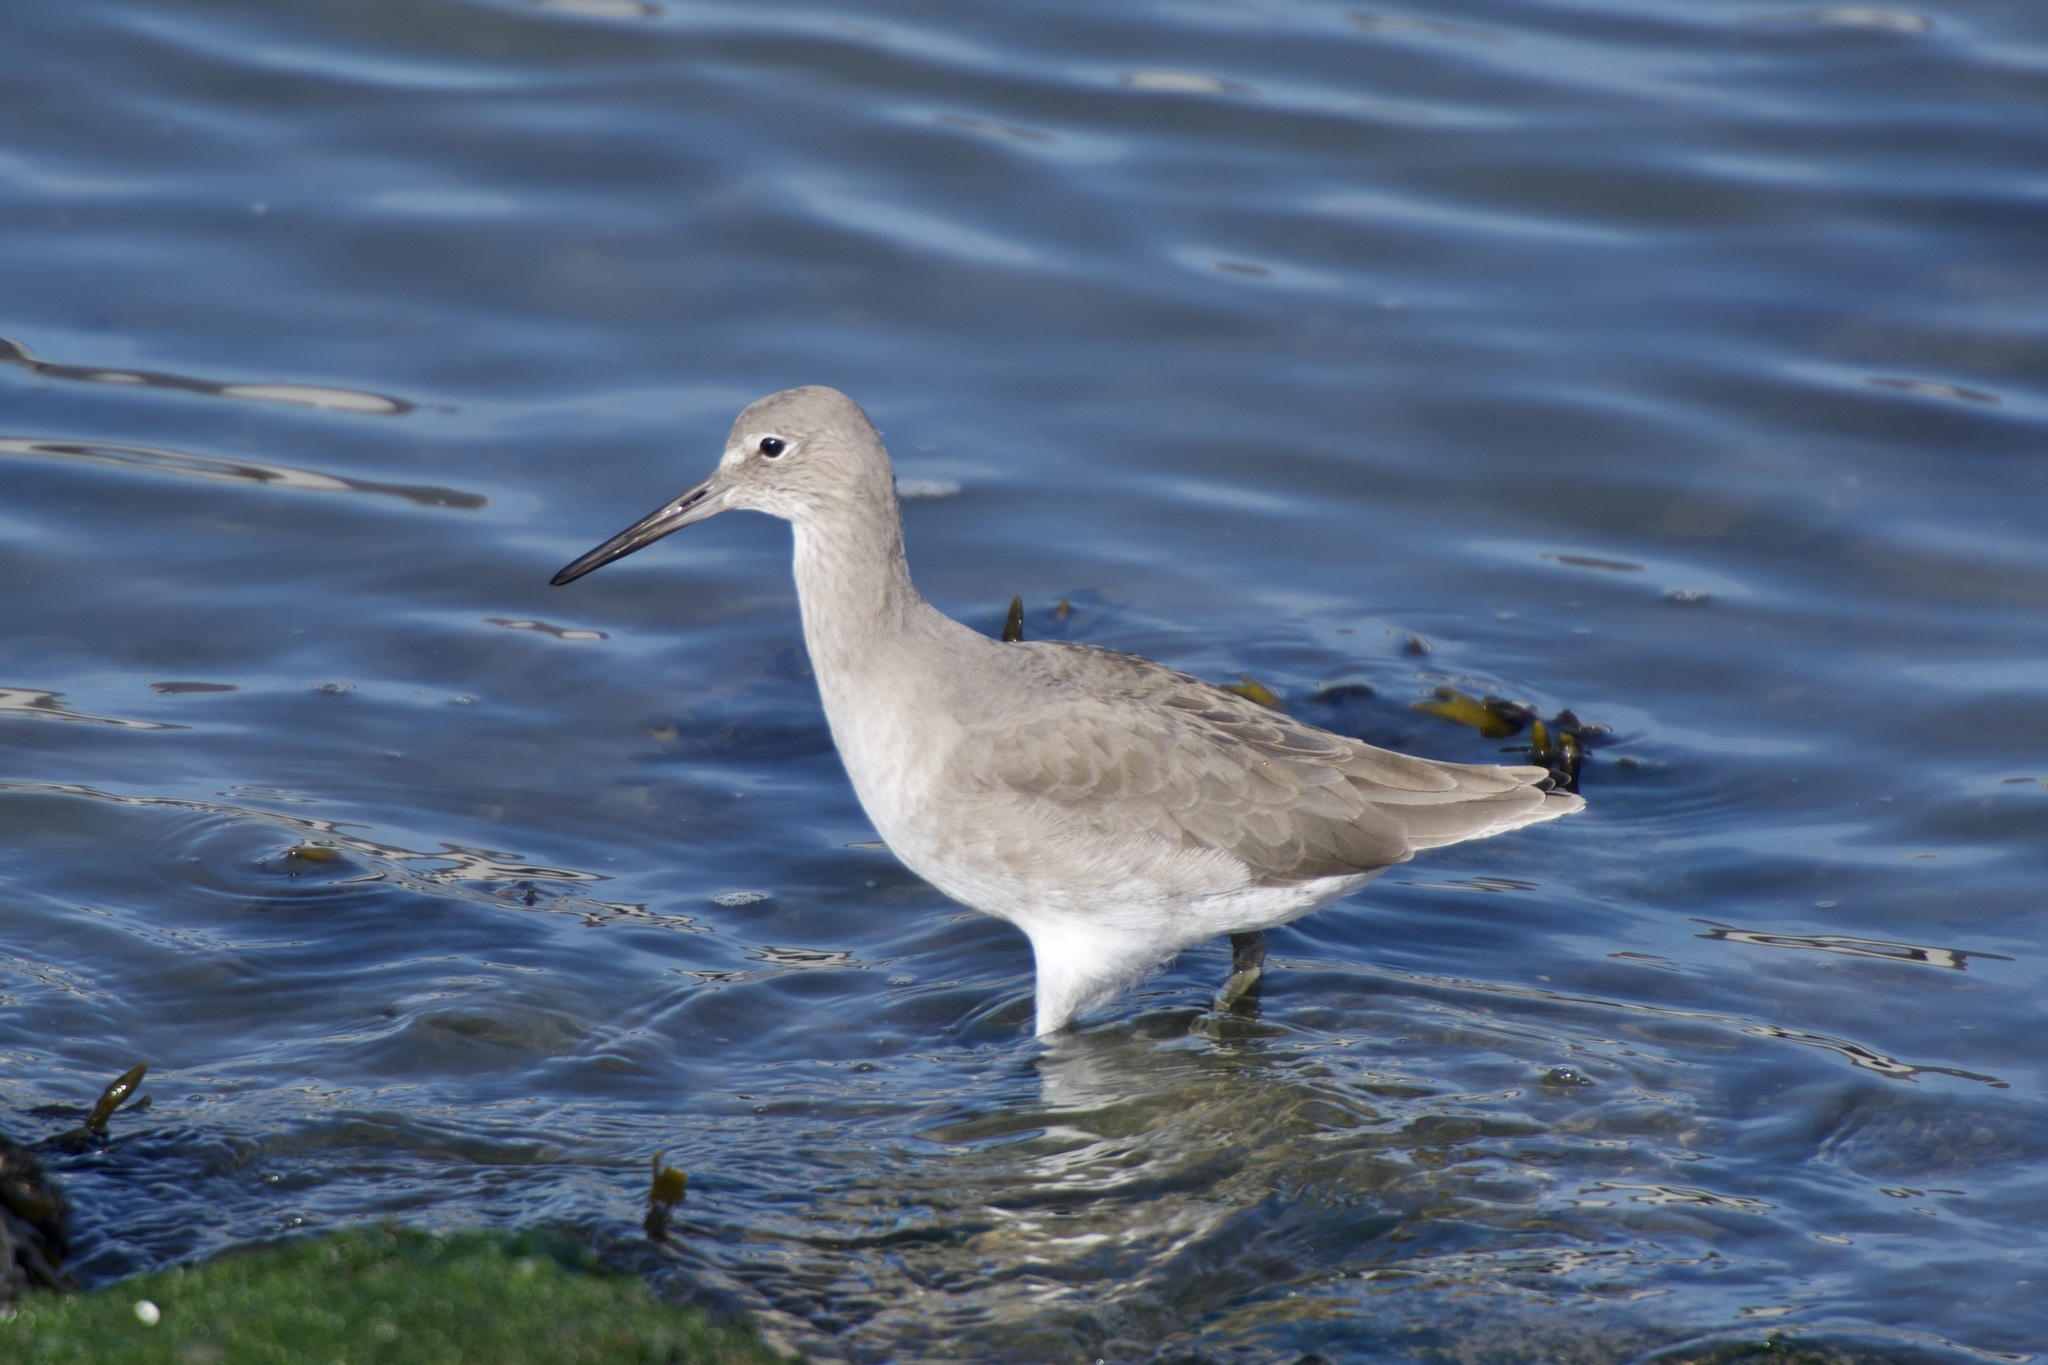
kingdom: Animalia
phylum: Chordata
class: Aves
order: Charadriiformes
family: Scolopacidae
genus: Tringa
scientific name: Tringa semipalmata
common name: Willet
